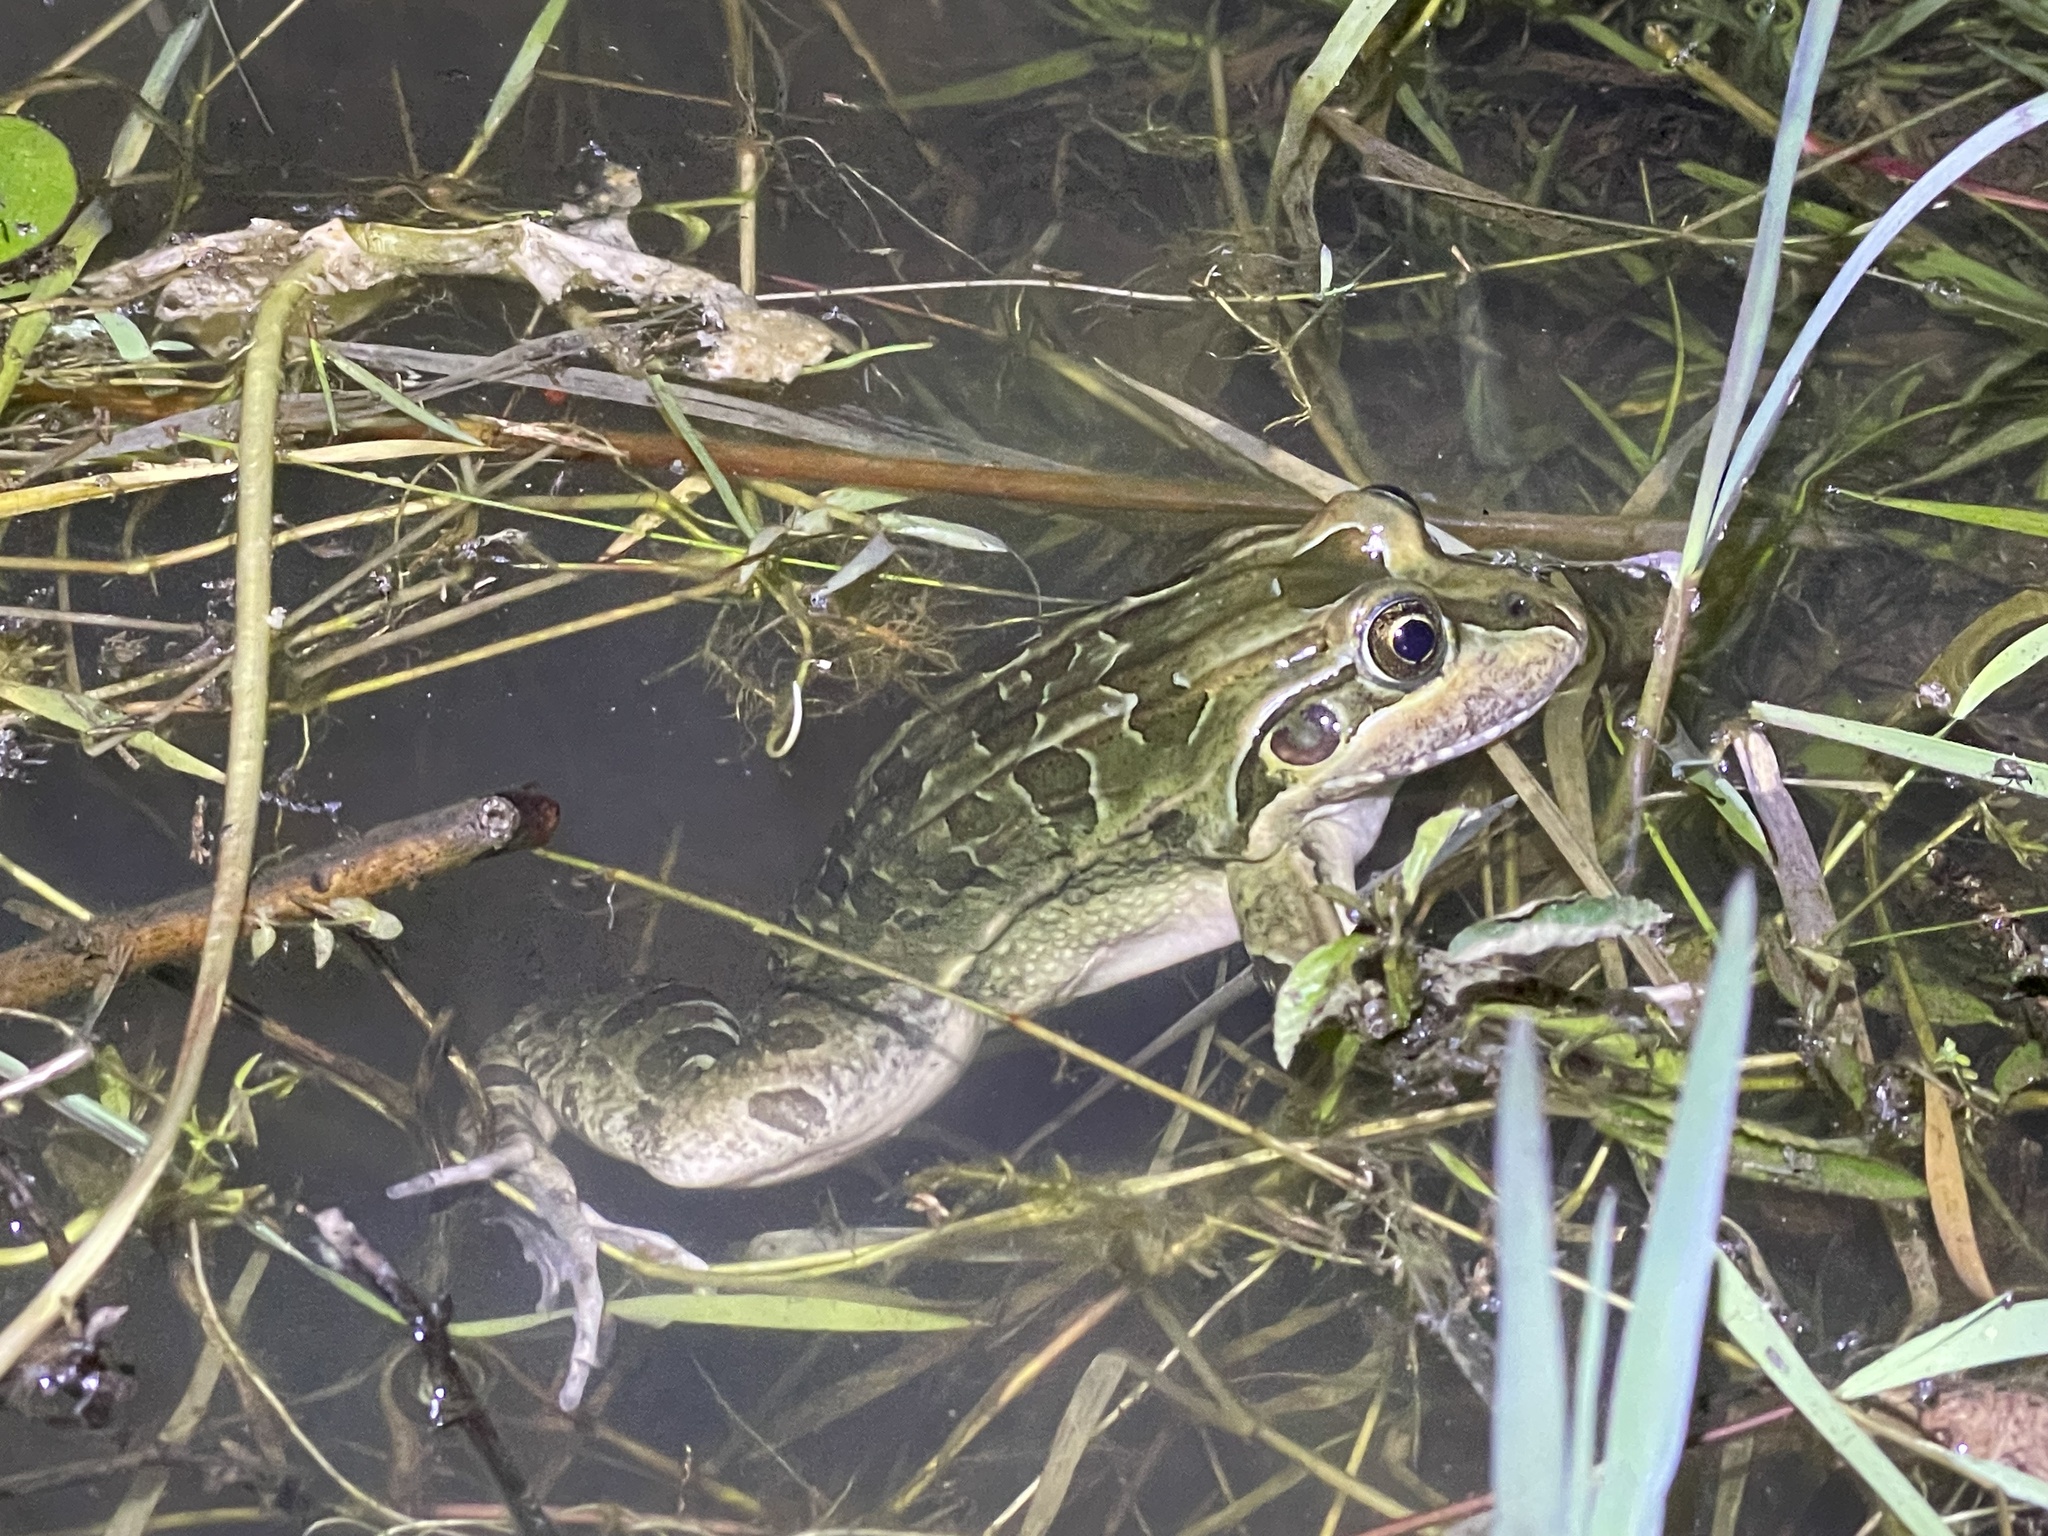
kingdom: Animalia
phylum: Chordata
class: Amphibia
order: Anura
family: Leptodactylidae
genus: Leptodactylus
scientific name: Leptodactylus luctator
